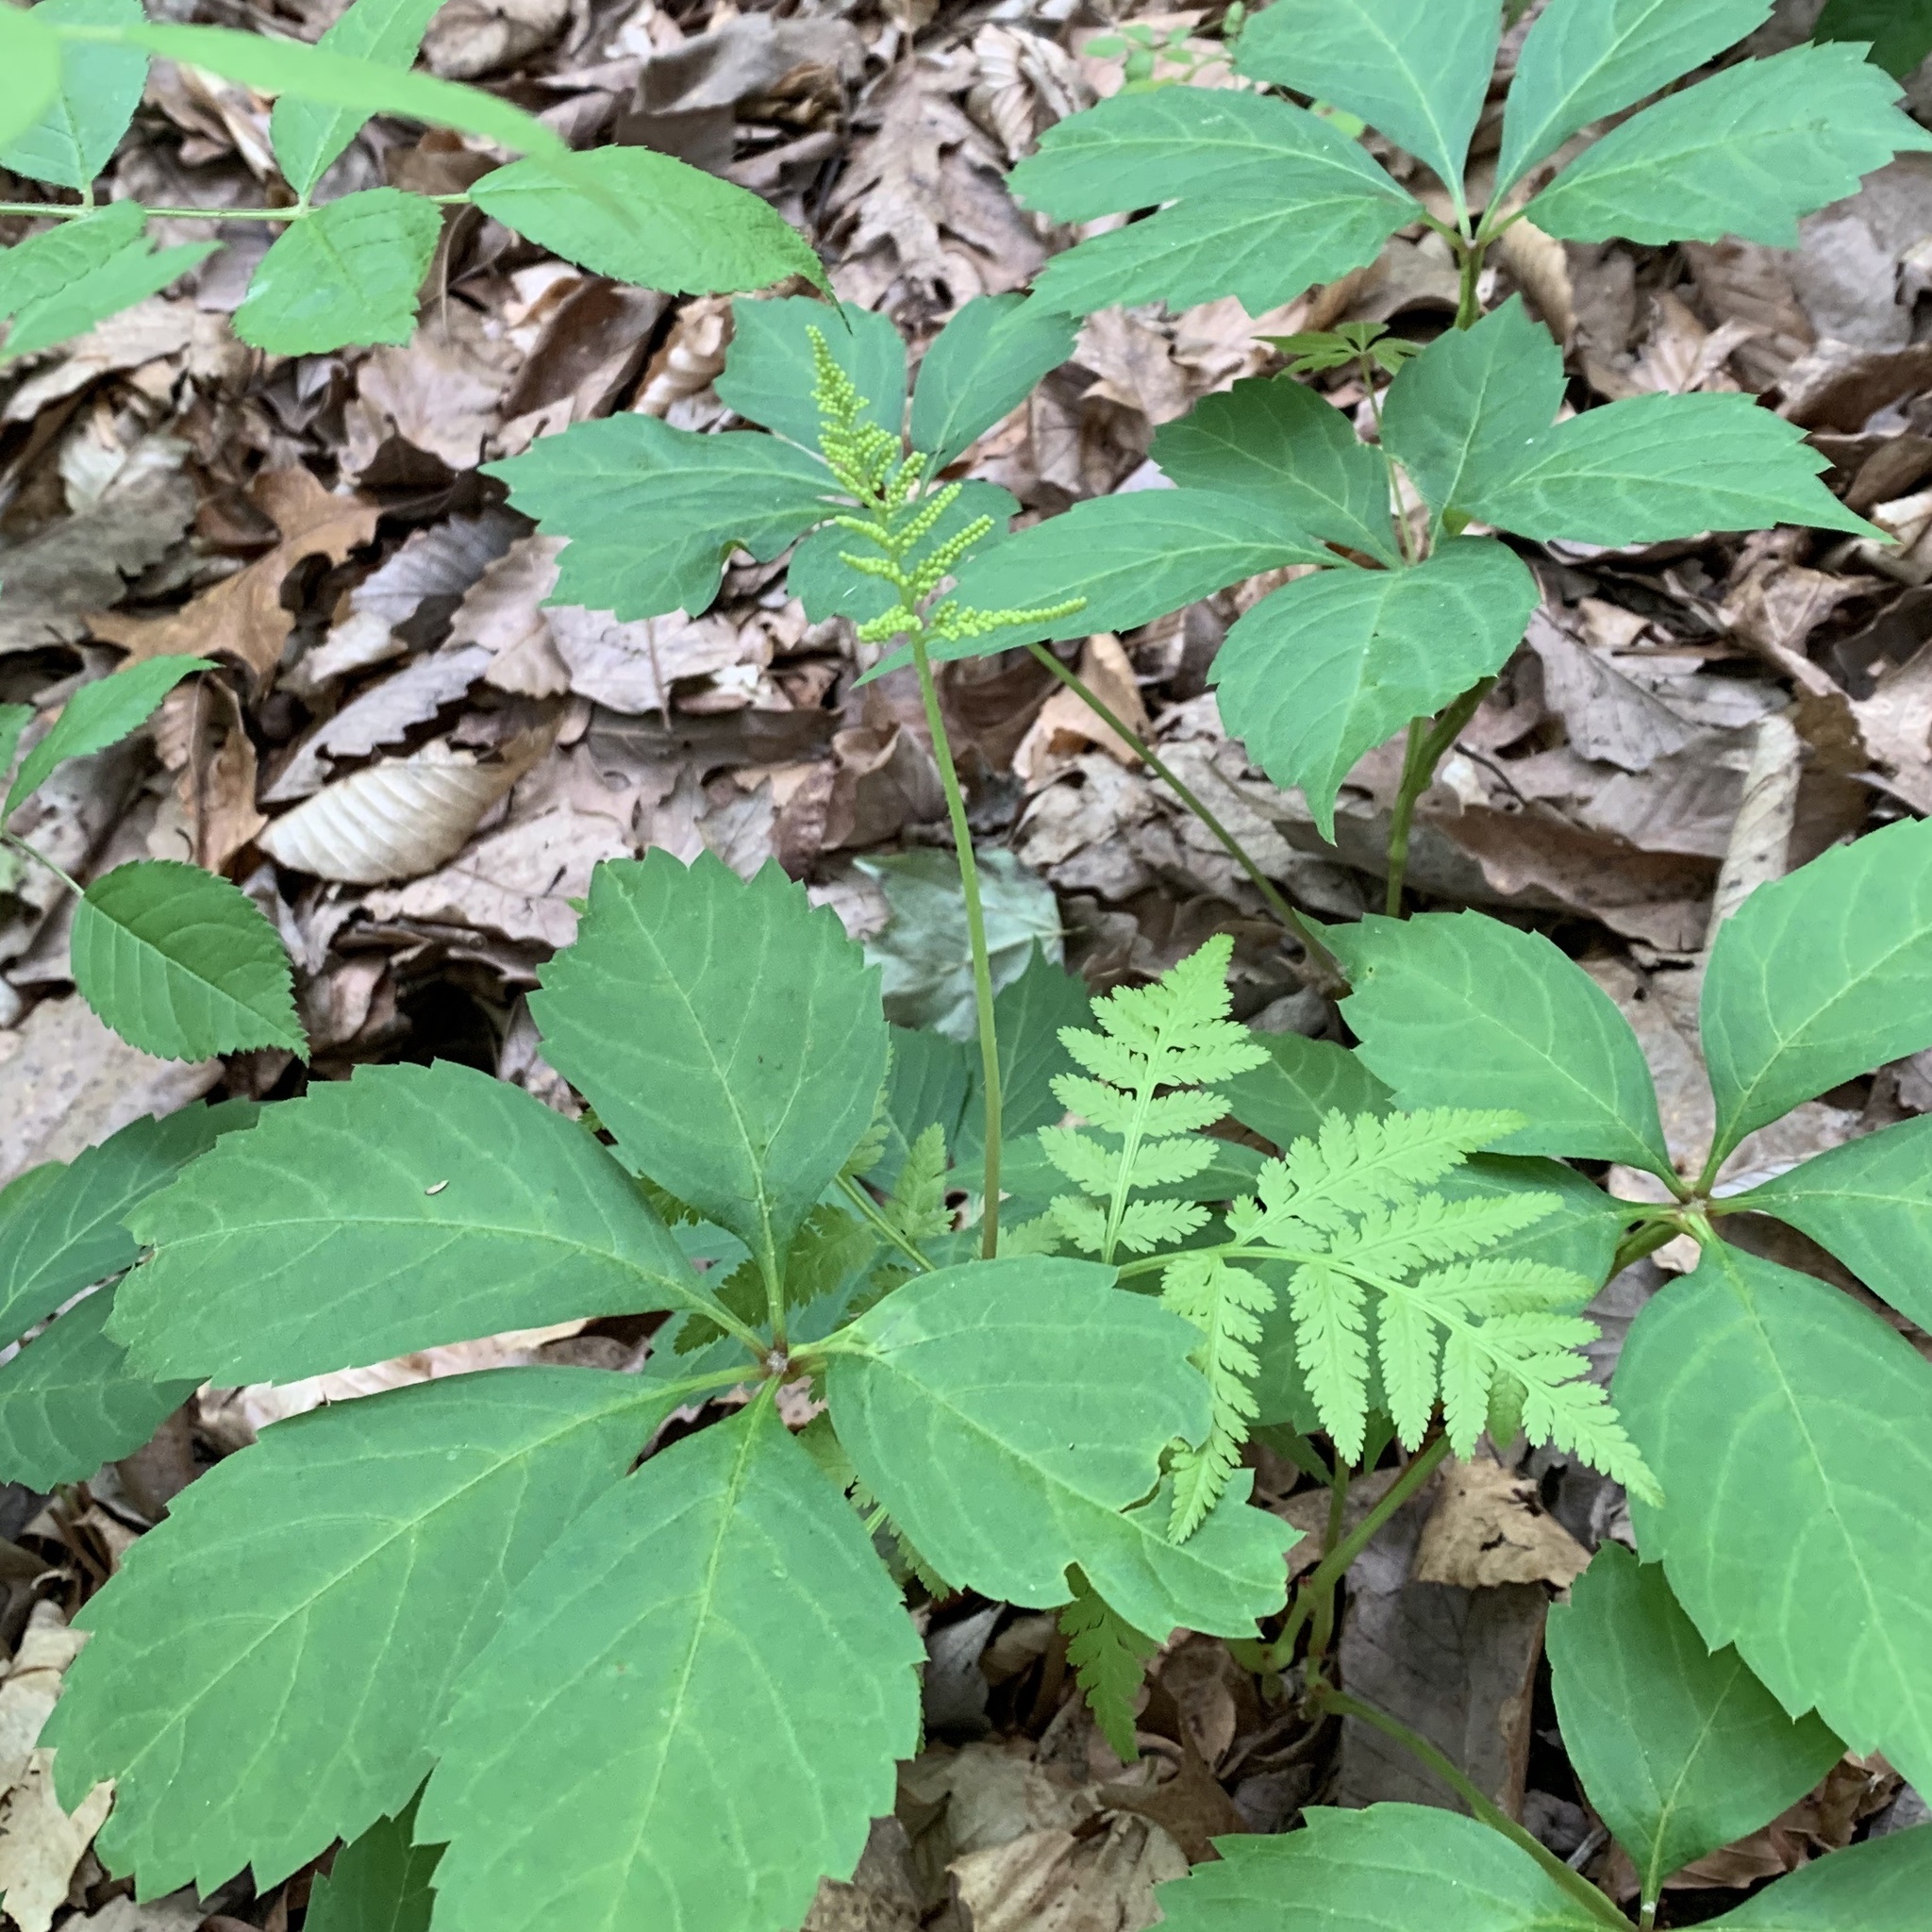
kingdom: Plantae
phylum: Tracheophyta
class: Polypodiopsida
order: Ophioglossales
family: Ophioglossaceae
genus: Botrypus
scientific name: Botrypus virginianus
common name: Common grapefern
